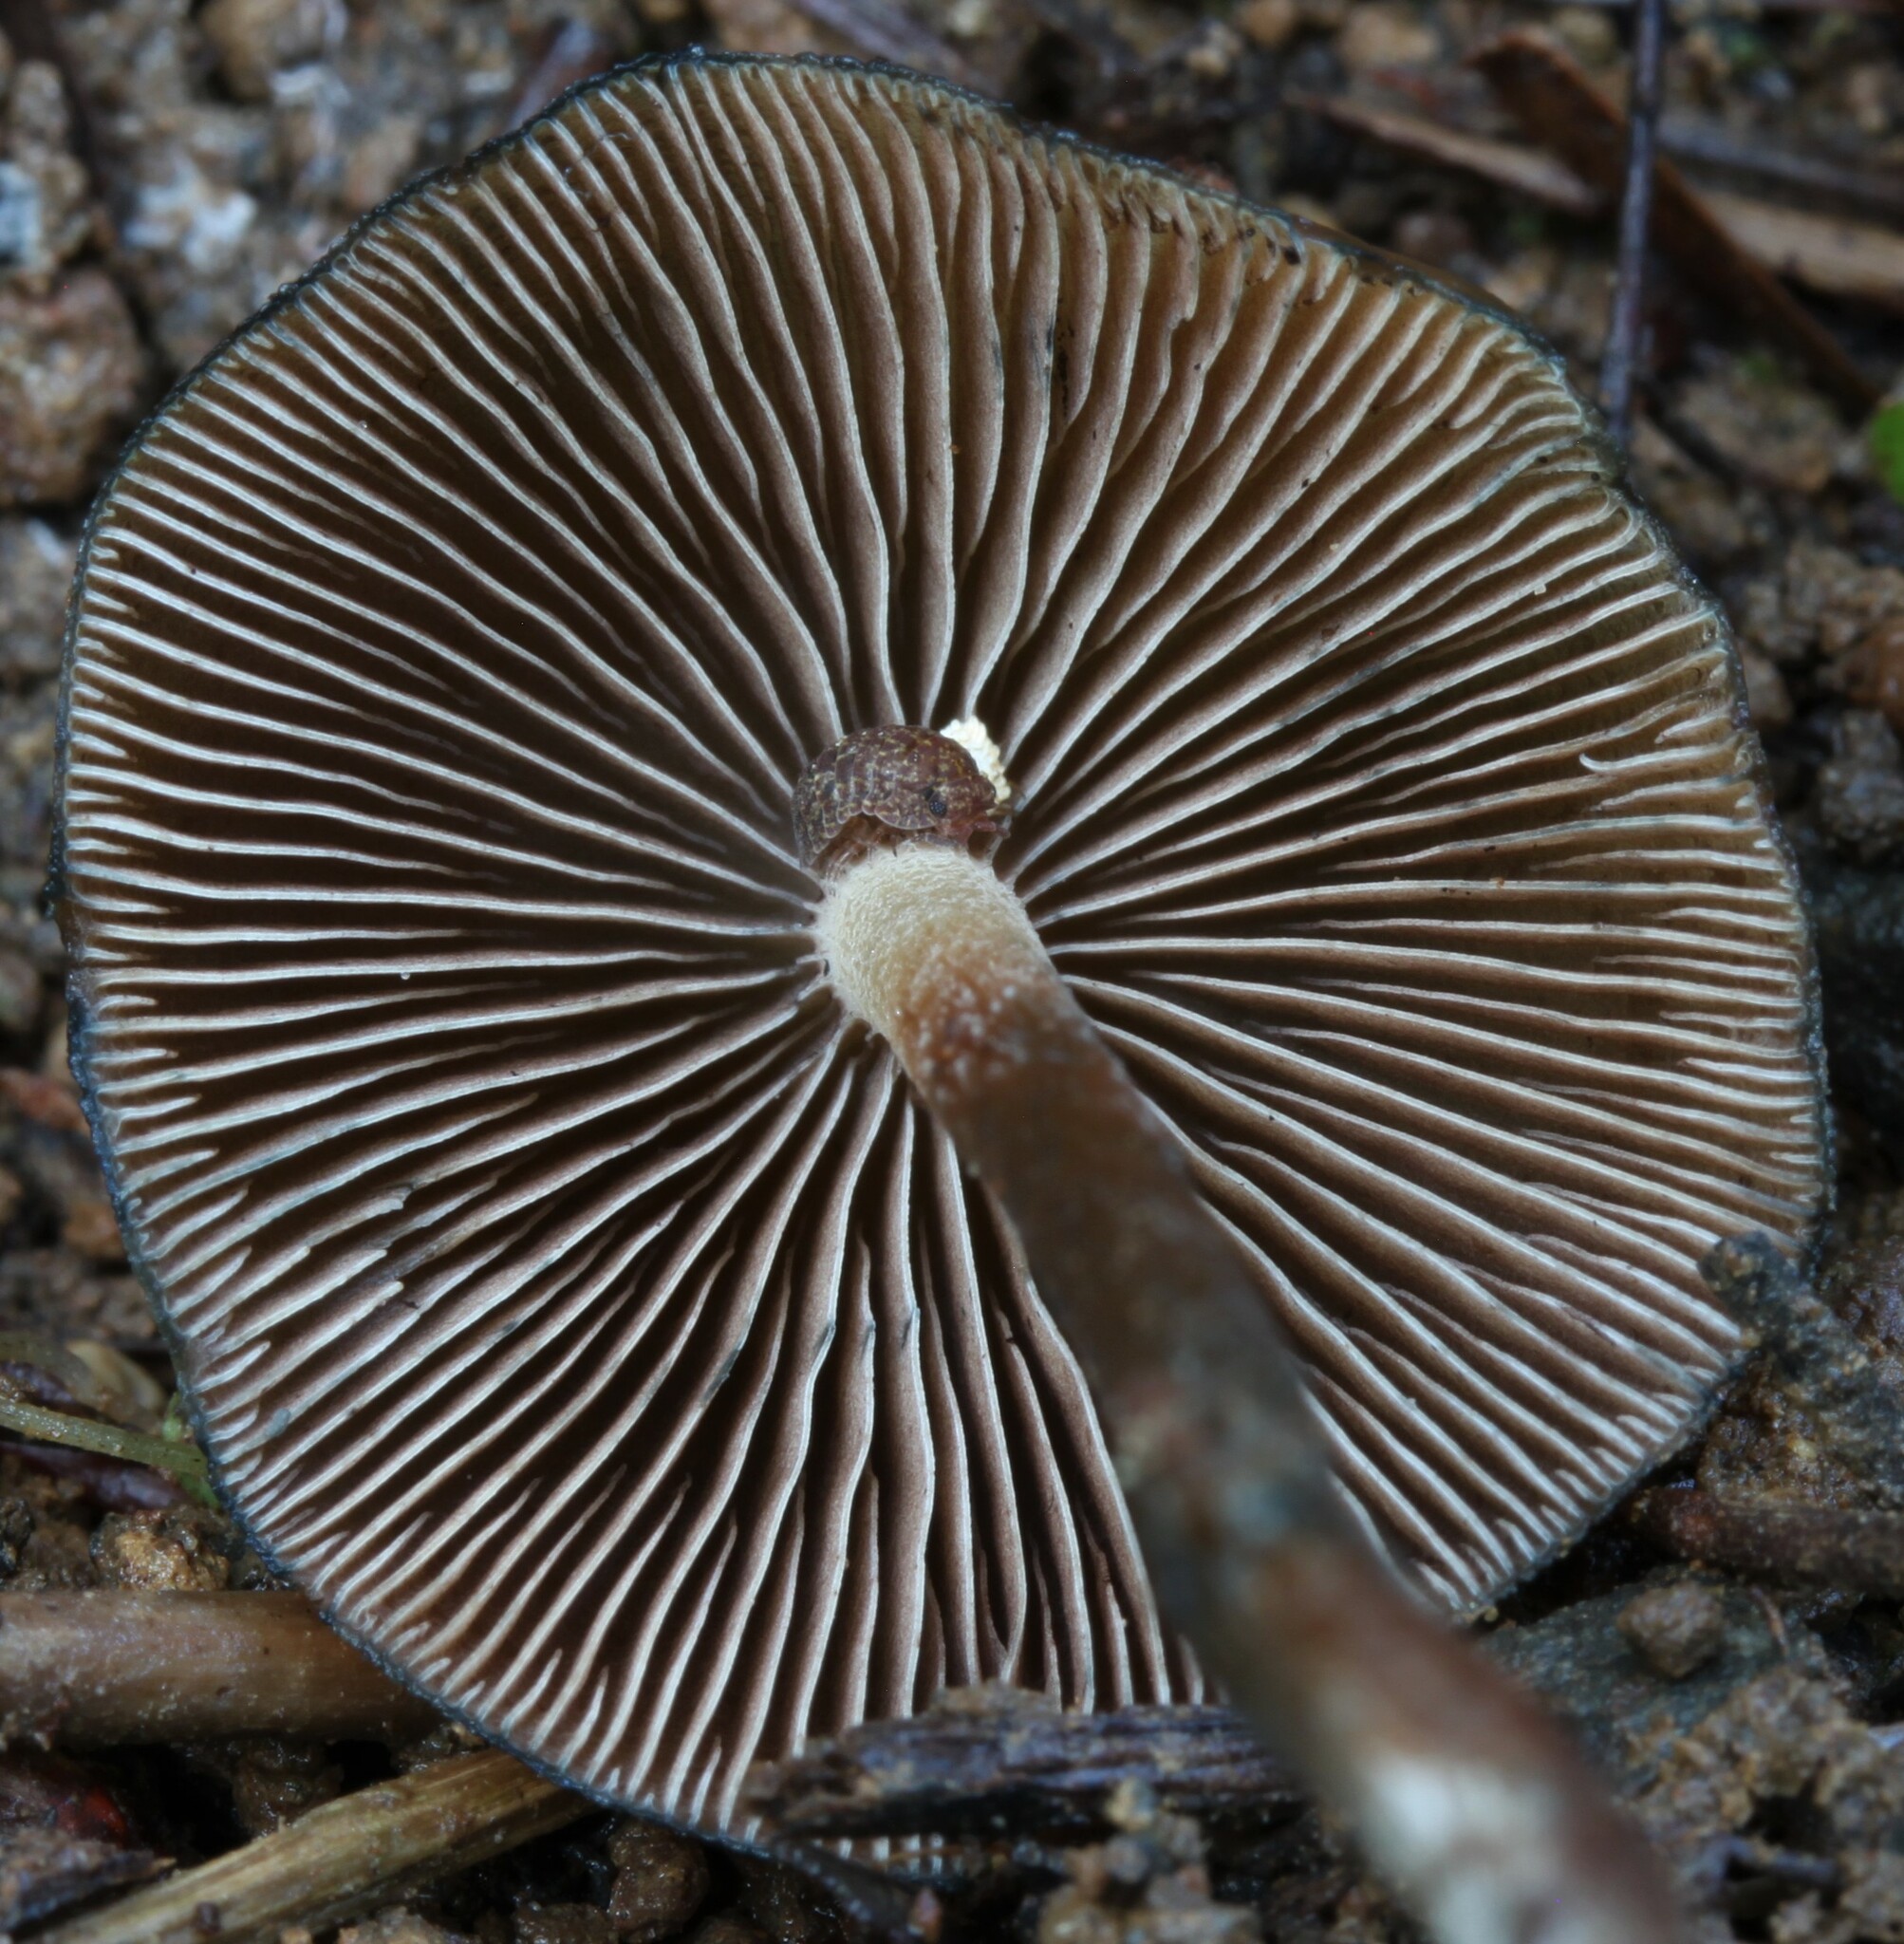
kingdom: Fungi
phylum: Basidiomycota
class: Agaricomycetes
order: Agaricales
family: Hymenogastraceae
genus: Psilocybe
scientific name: Psilocybe aucklandiae
